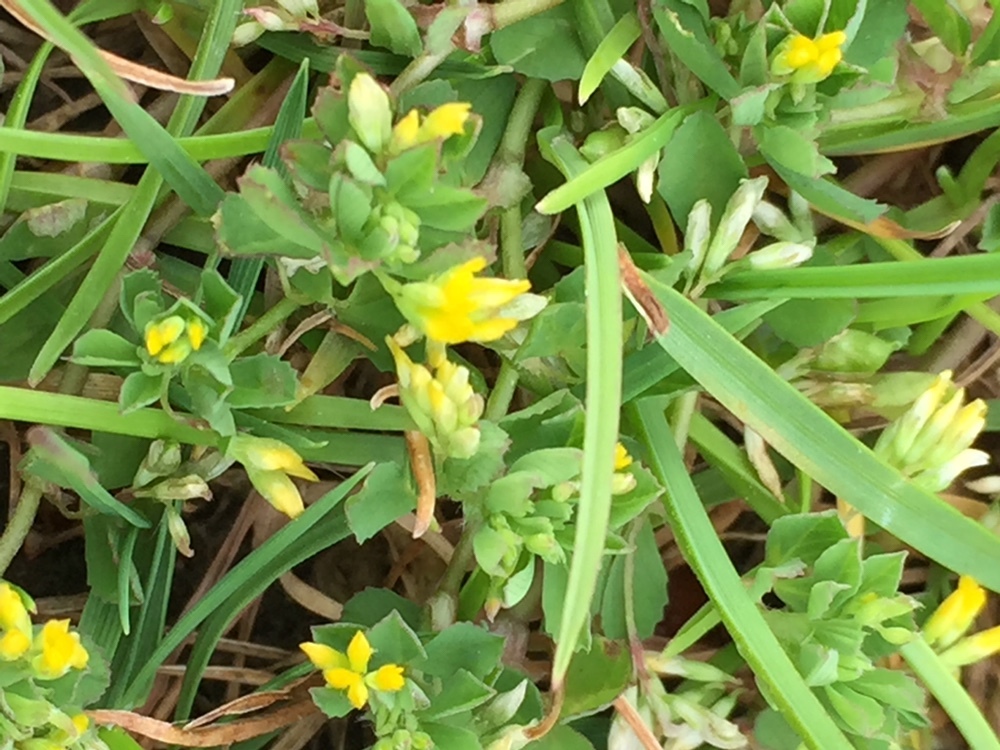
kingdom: Plantae
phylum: Tracheophyta
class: Magnoliopsida
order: Fabales
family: Fabaceae
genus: Trifolium
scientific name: Trifolium dubium
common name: Suckling clover
